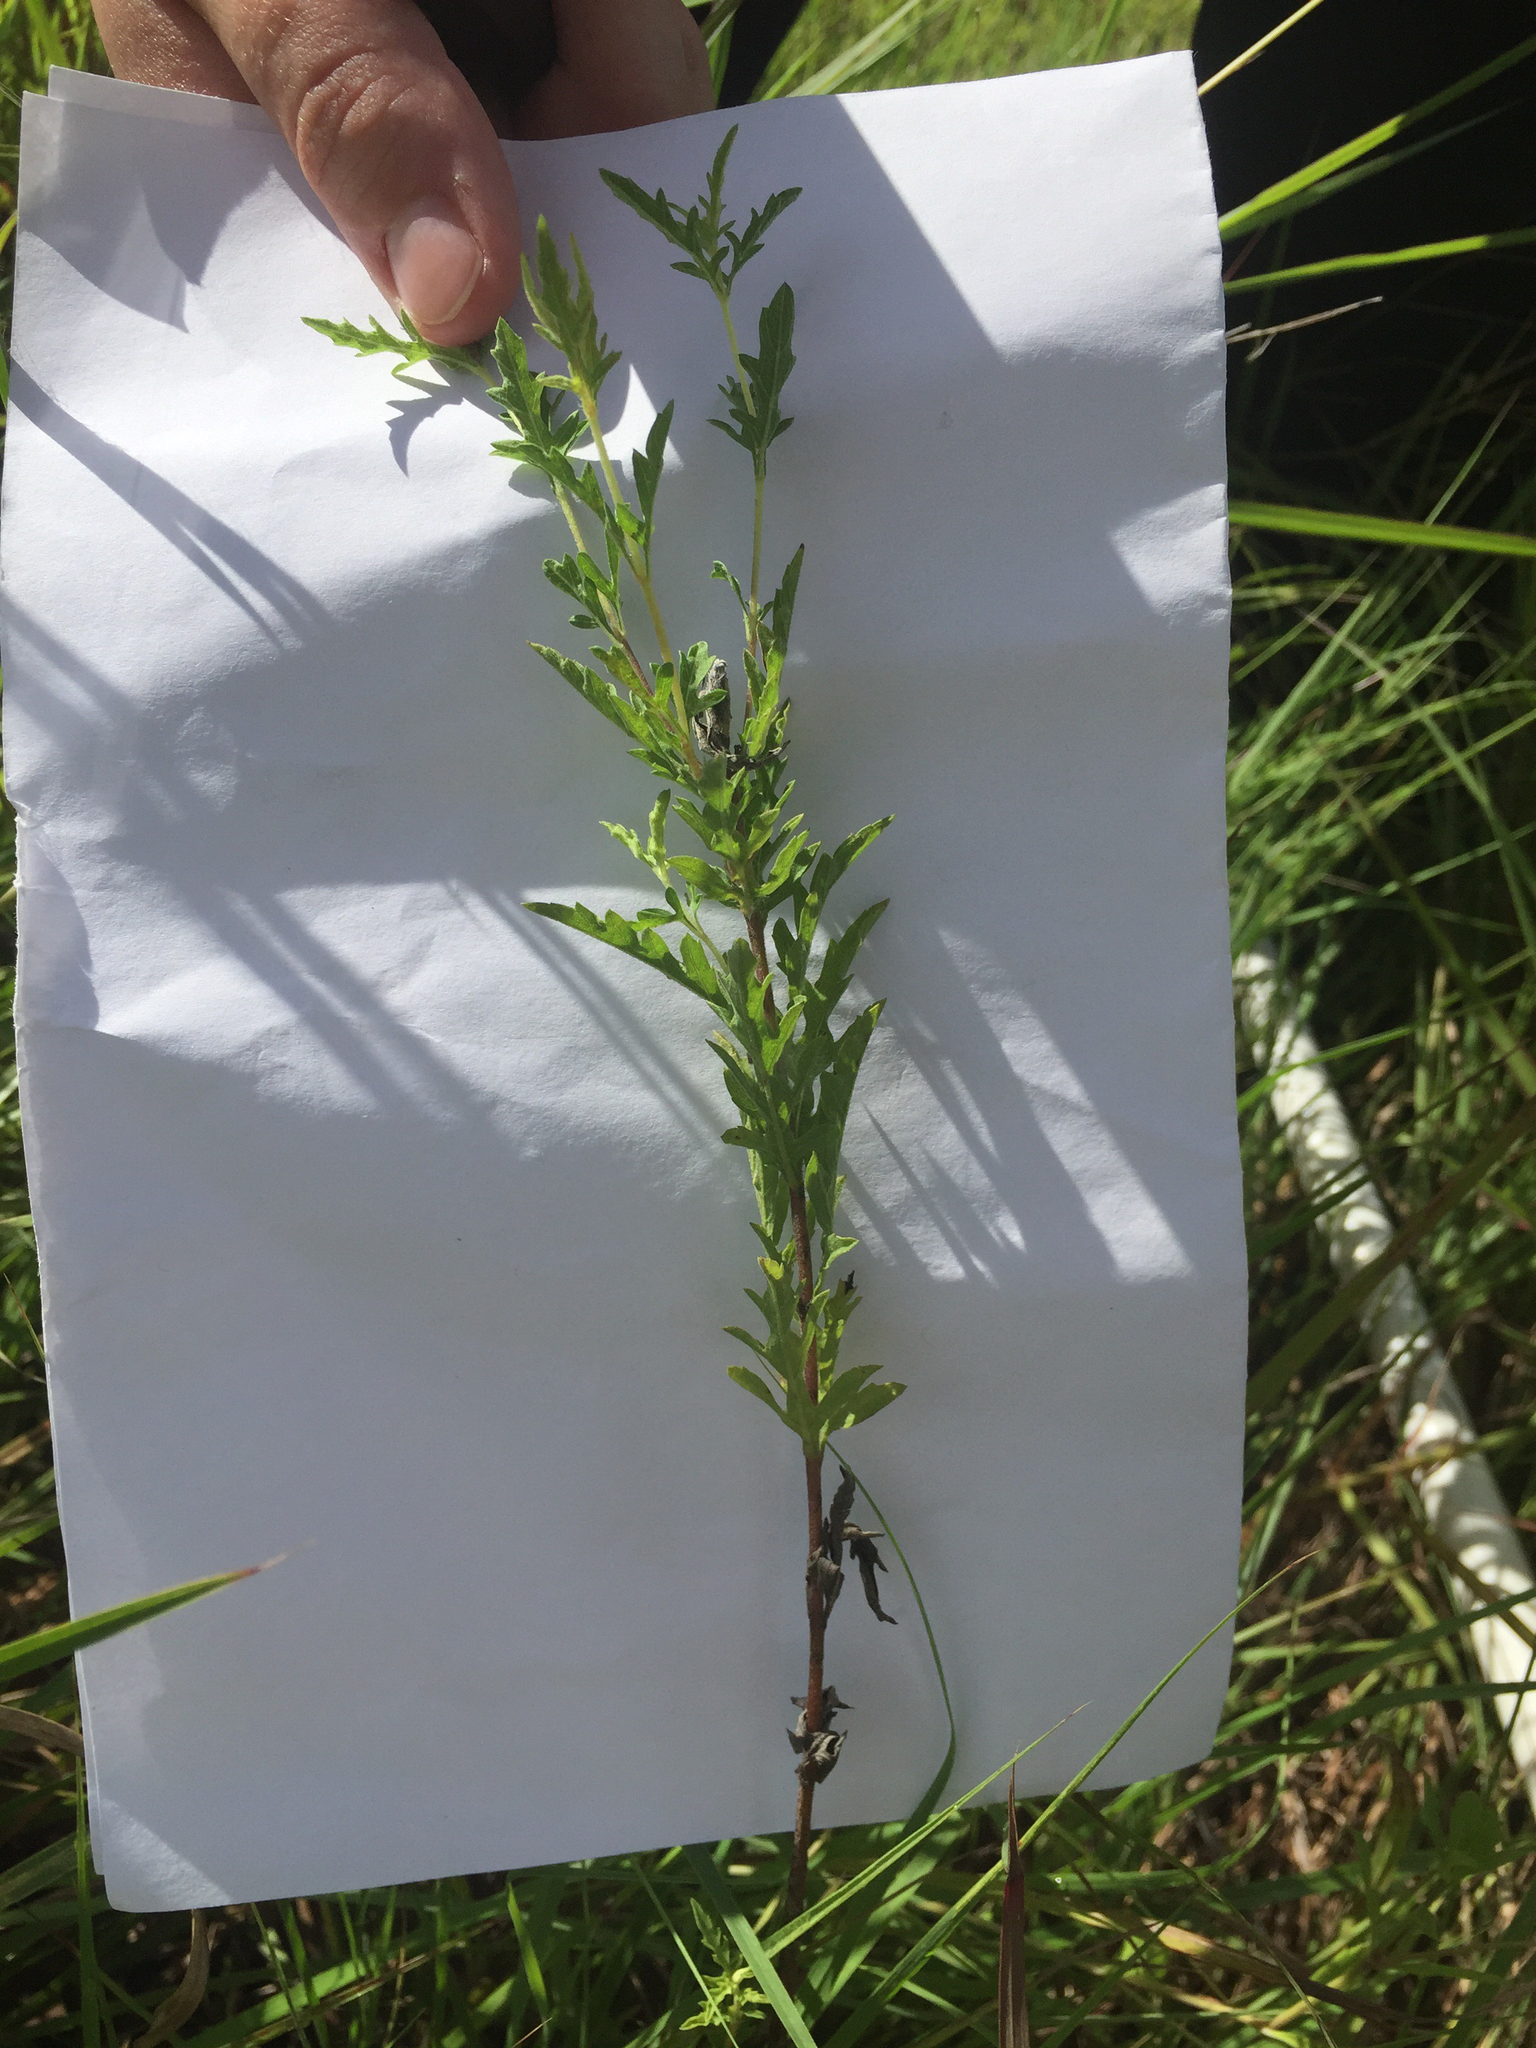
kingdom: Plantae
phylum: Tracheophyta
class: Magnoliopsida
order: Asterales
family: Asteraceae
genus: Ambrosia
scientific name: Ambrosia psilostachya
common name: Perennial ragweed
